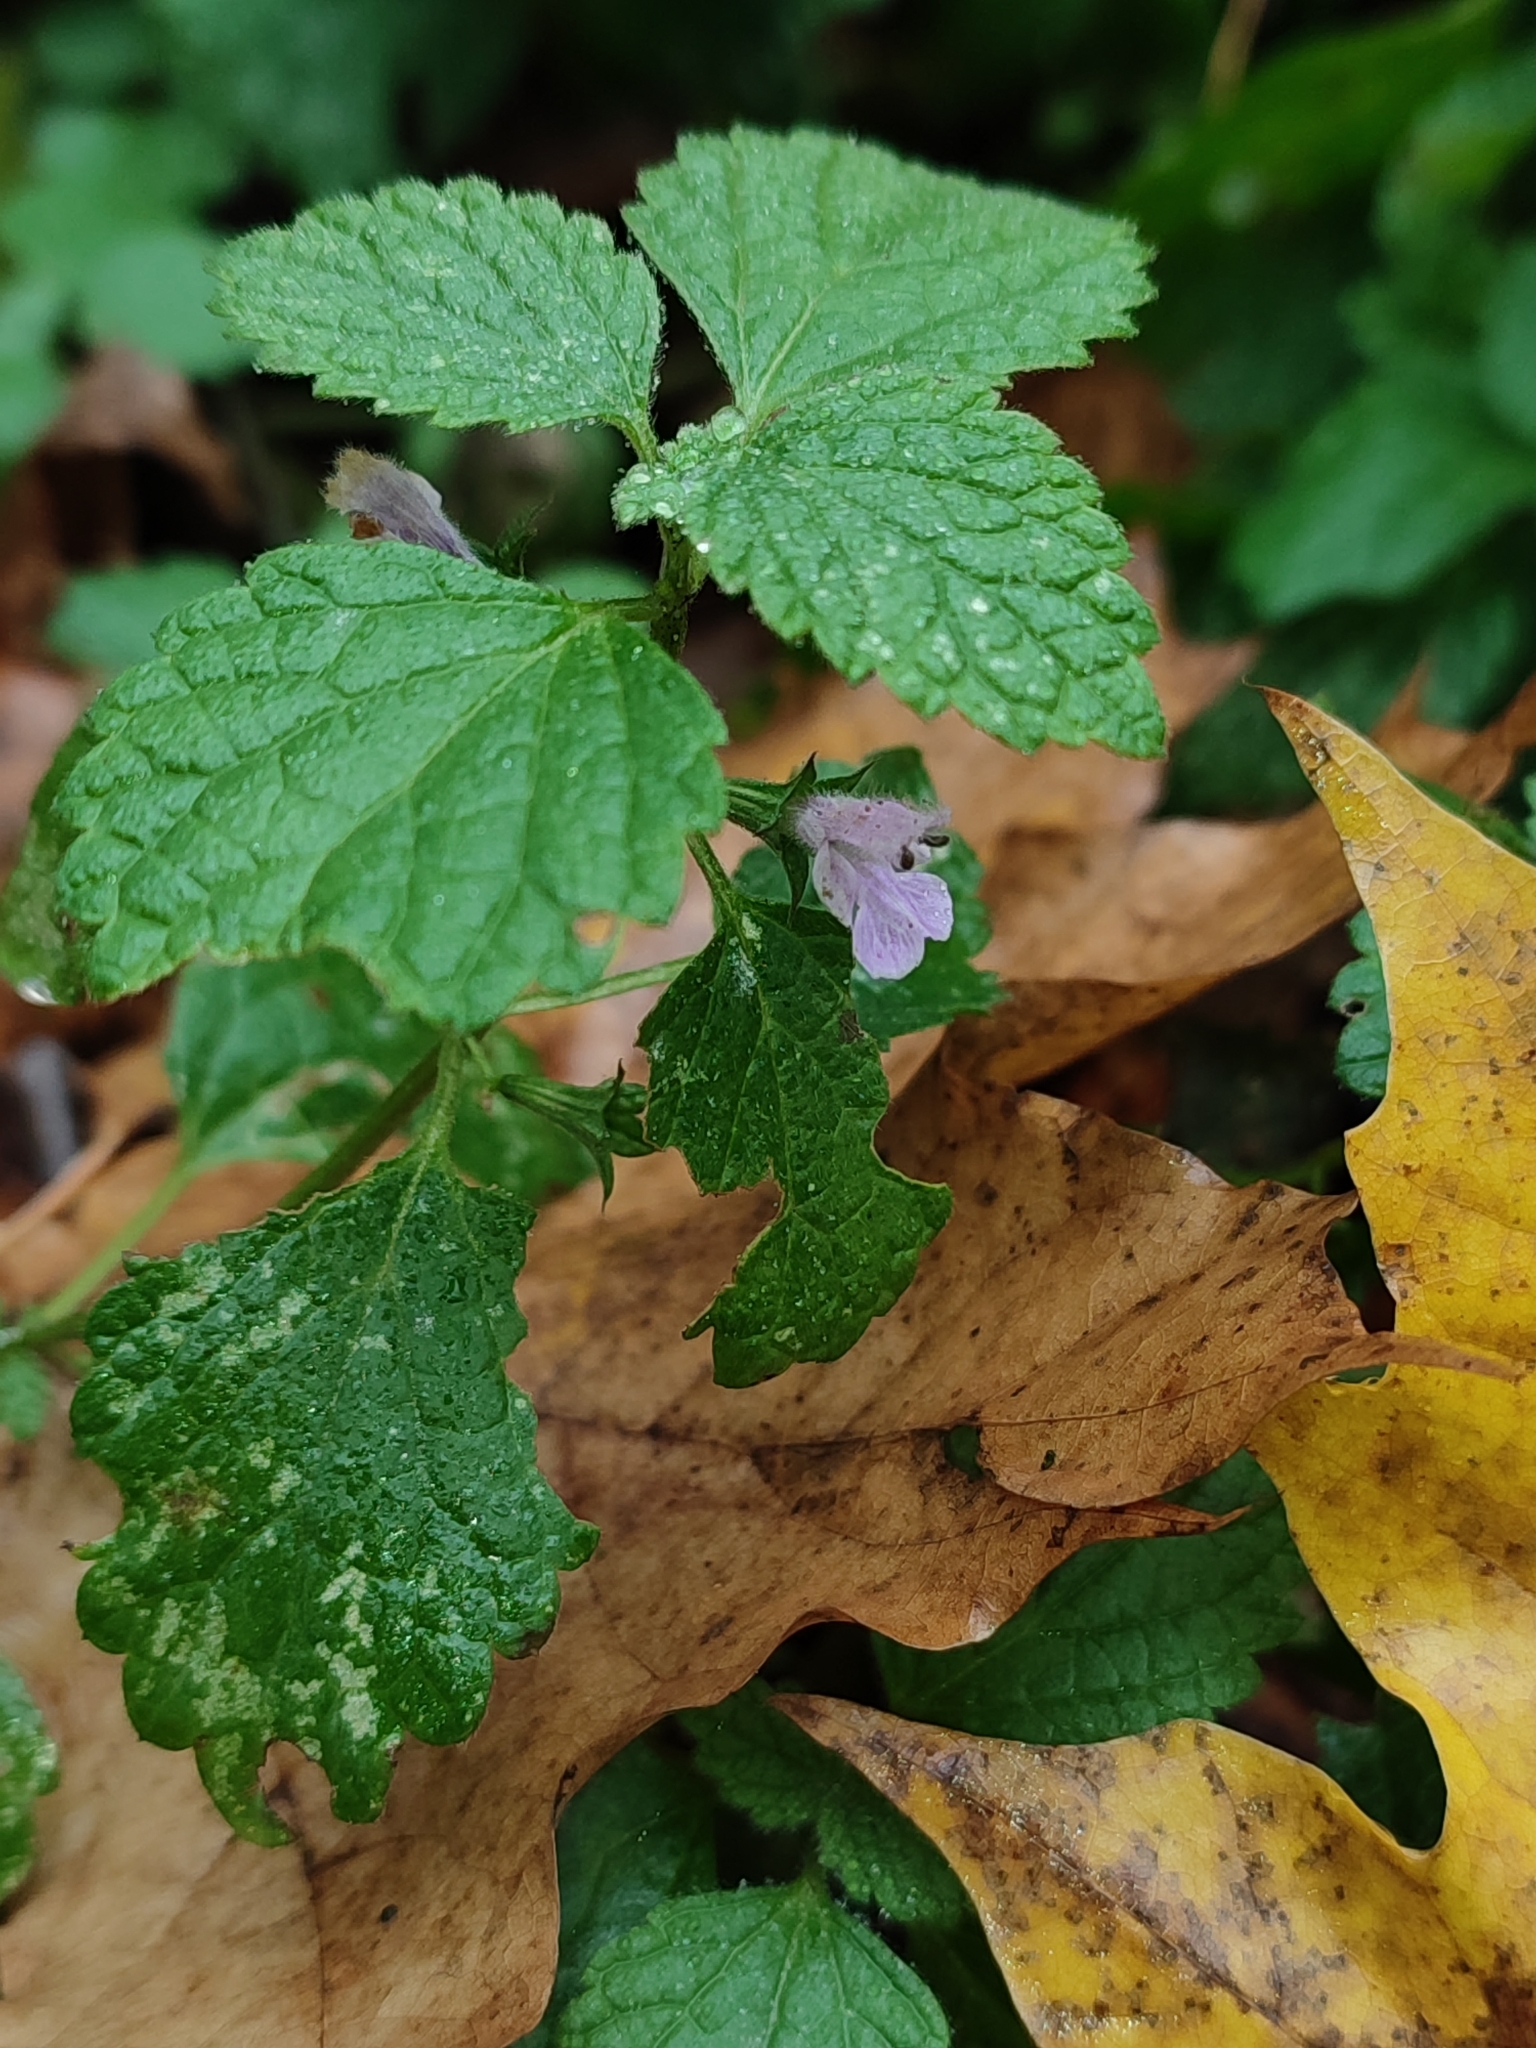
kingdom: Plantae
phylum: Tracheophyta
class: Magnoliopsida
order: Lamiales
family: Lamiaceae
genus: Ballota
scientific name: Ballota nigra
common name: Black horehound
